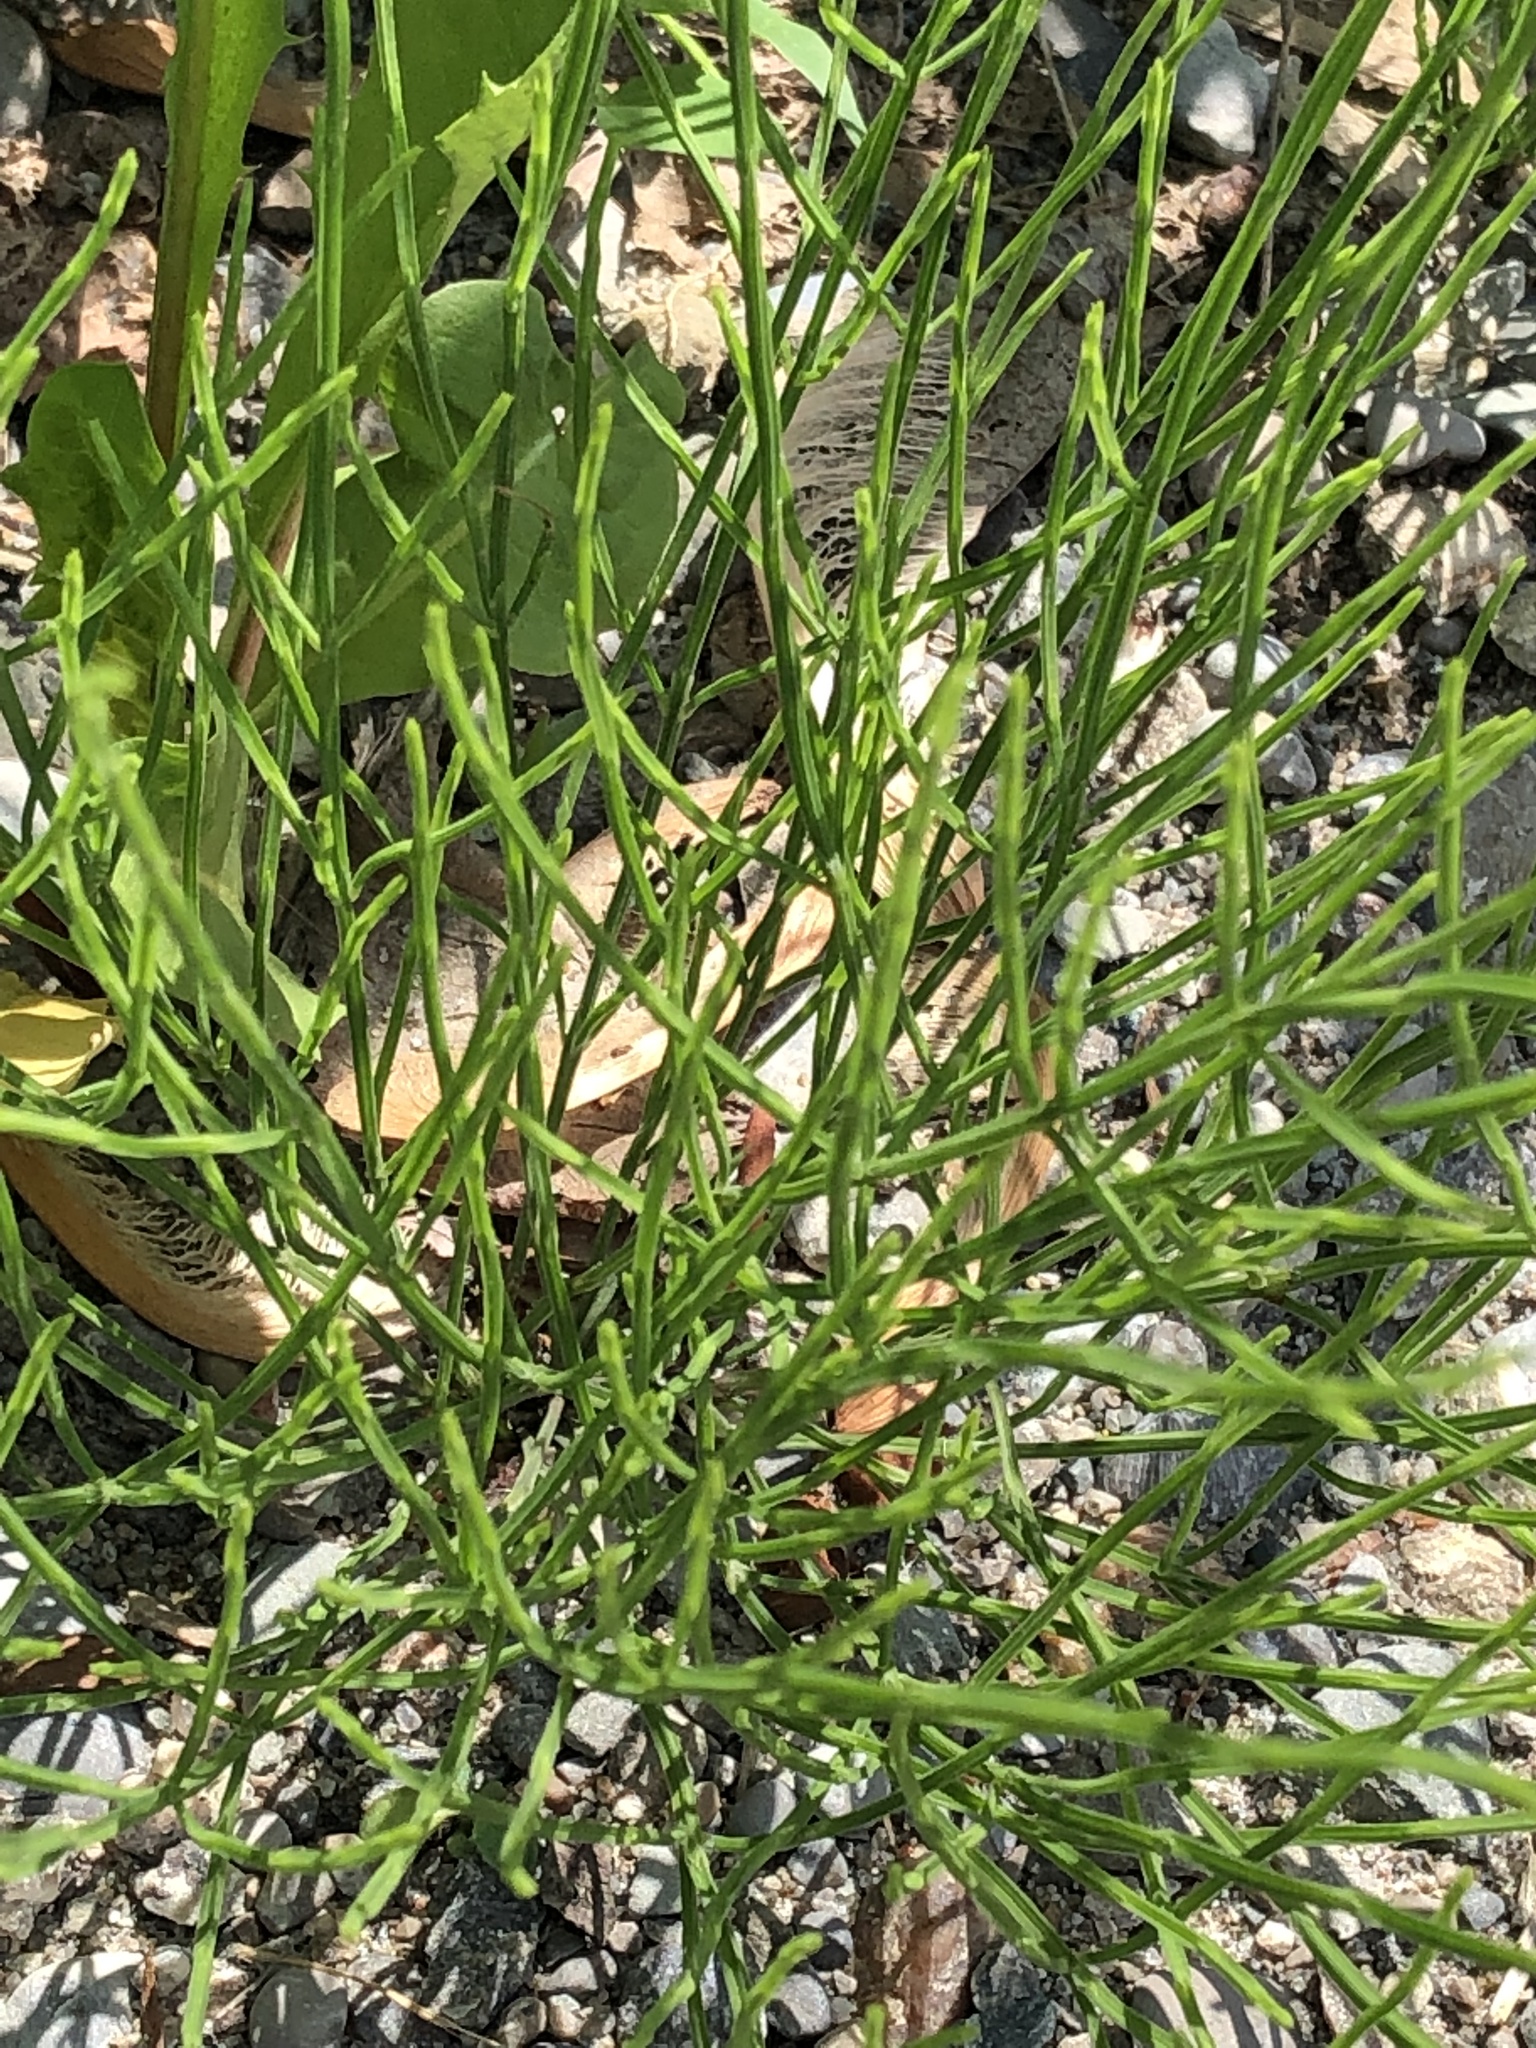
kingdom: Plantae
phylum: Tracheophyta
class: Polypodiopsida
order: Equisetales
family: Equisetaceae
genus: Equisetum
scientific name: Equisetum arvense
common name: Field horsetail
